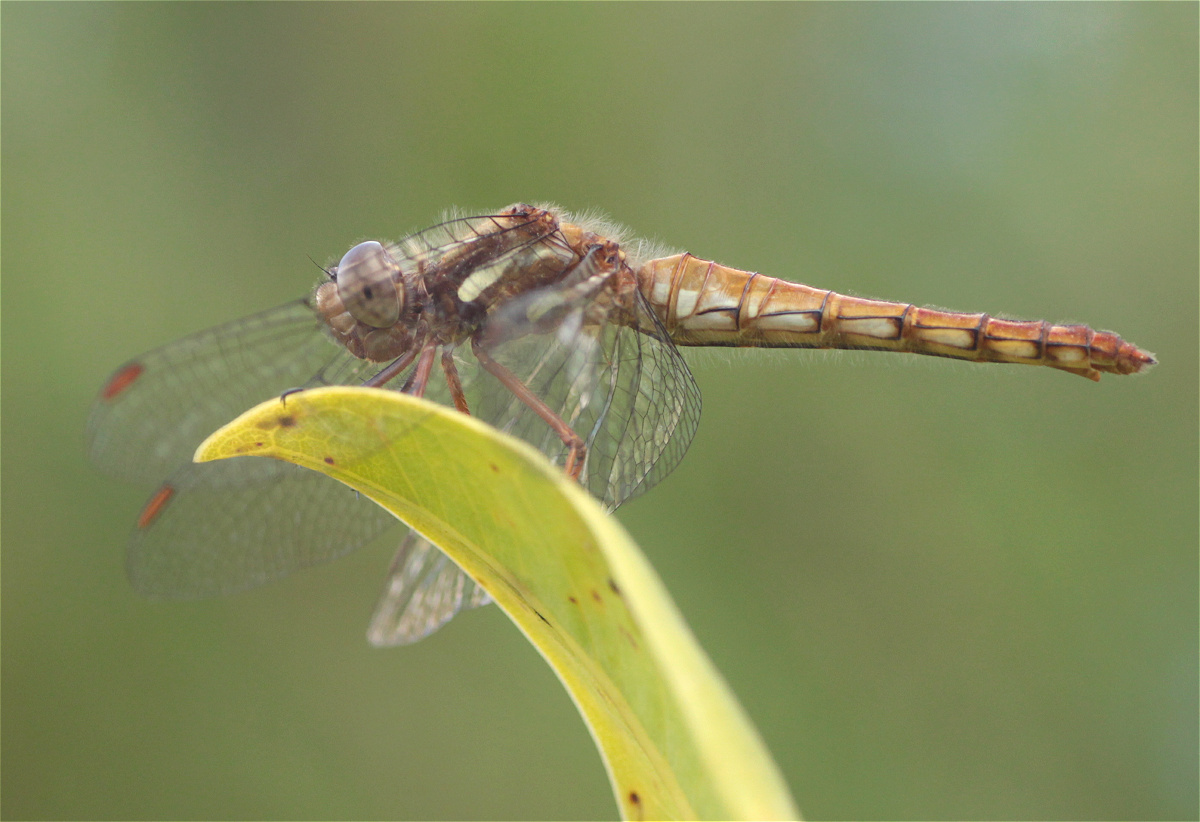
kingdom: Animalia
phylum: Arthropoda
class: Insecta
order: Odonata
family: Libellulidae
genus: Sympetrum
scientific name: Sympetrum gilvum
